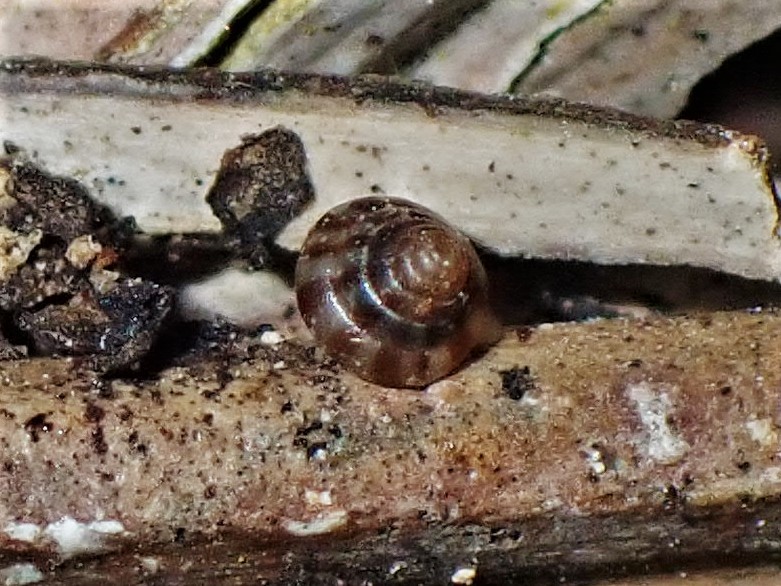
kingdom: Animalia
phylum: Mollusca
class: Gastropoda
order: Stylommatophora
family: Punctidae
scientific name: Punctidae
